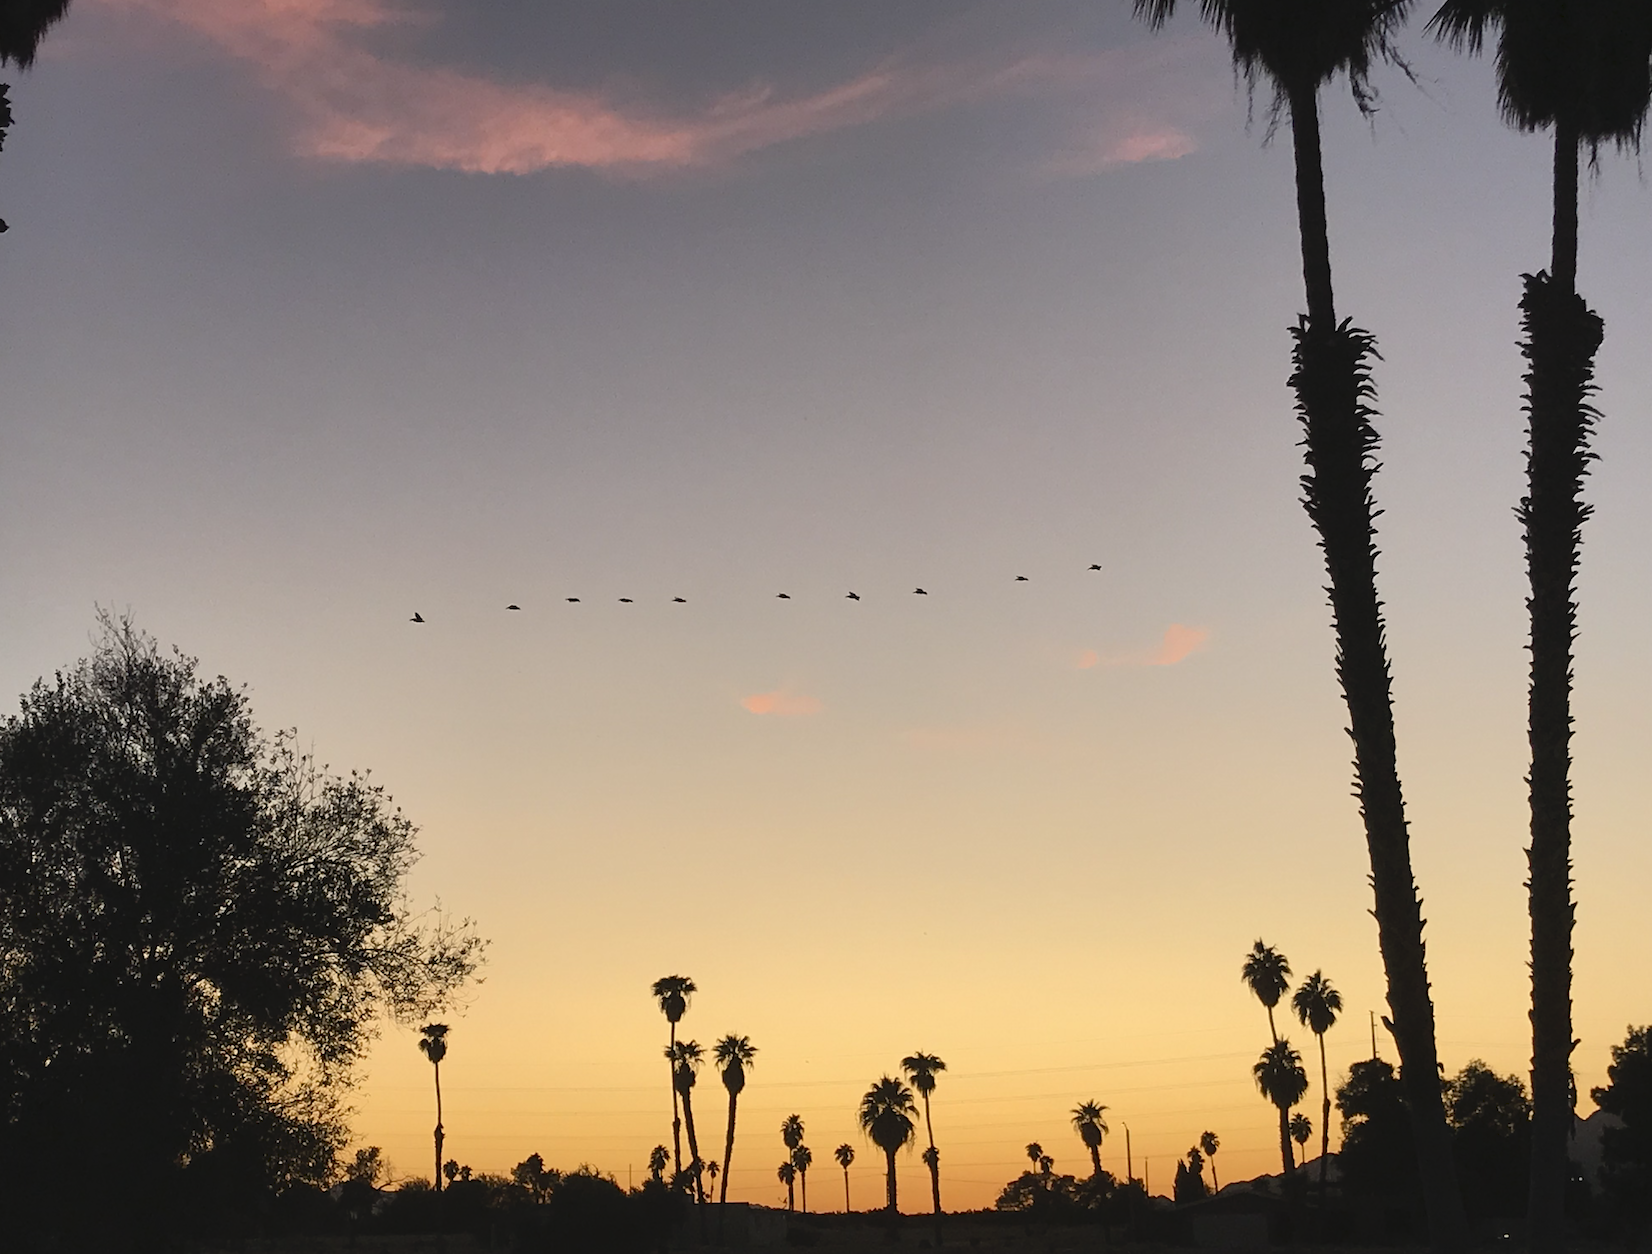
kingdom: Animalia
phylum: Chordata
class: Aves
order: Pelecaniformes
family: Pelecanidae
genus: Pelecanus
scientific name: Pelecanus erythrorhynchos
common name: American white pelican
